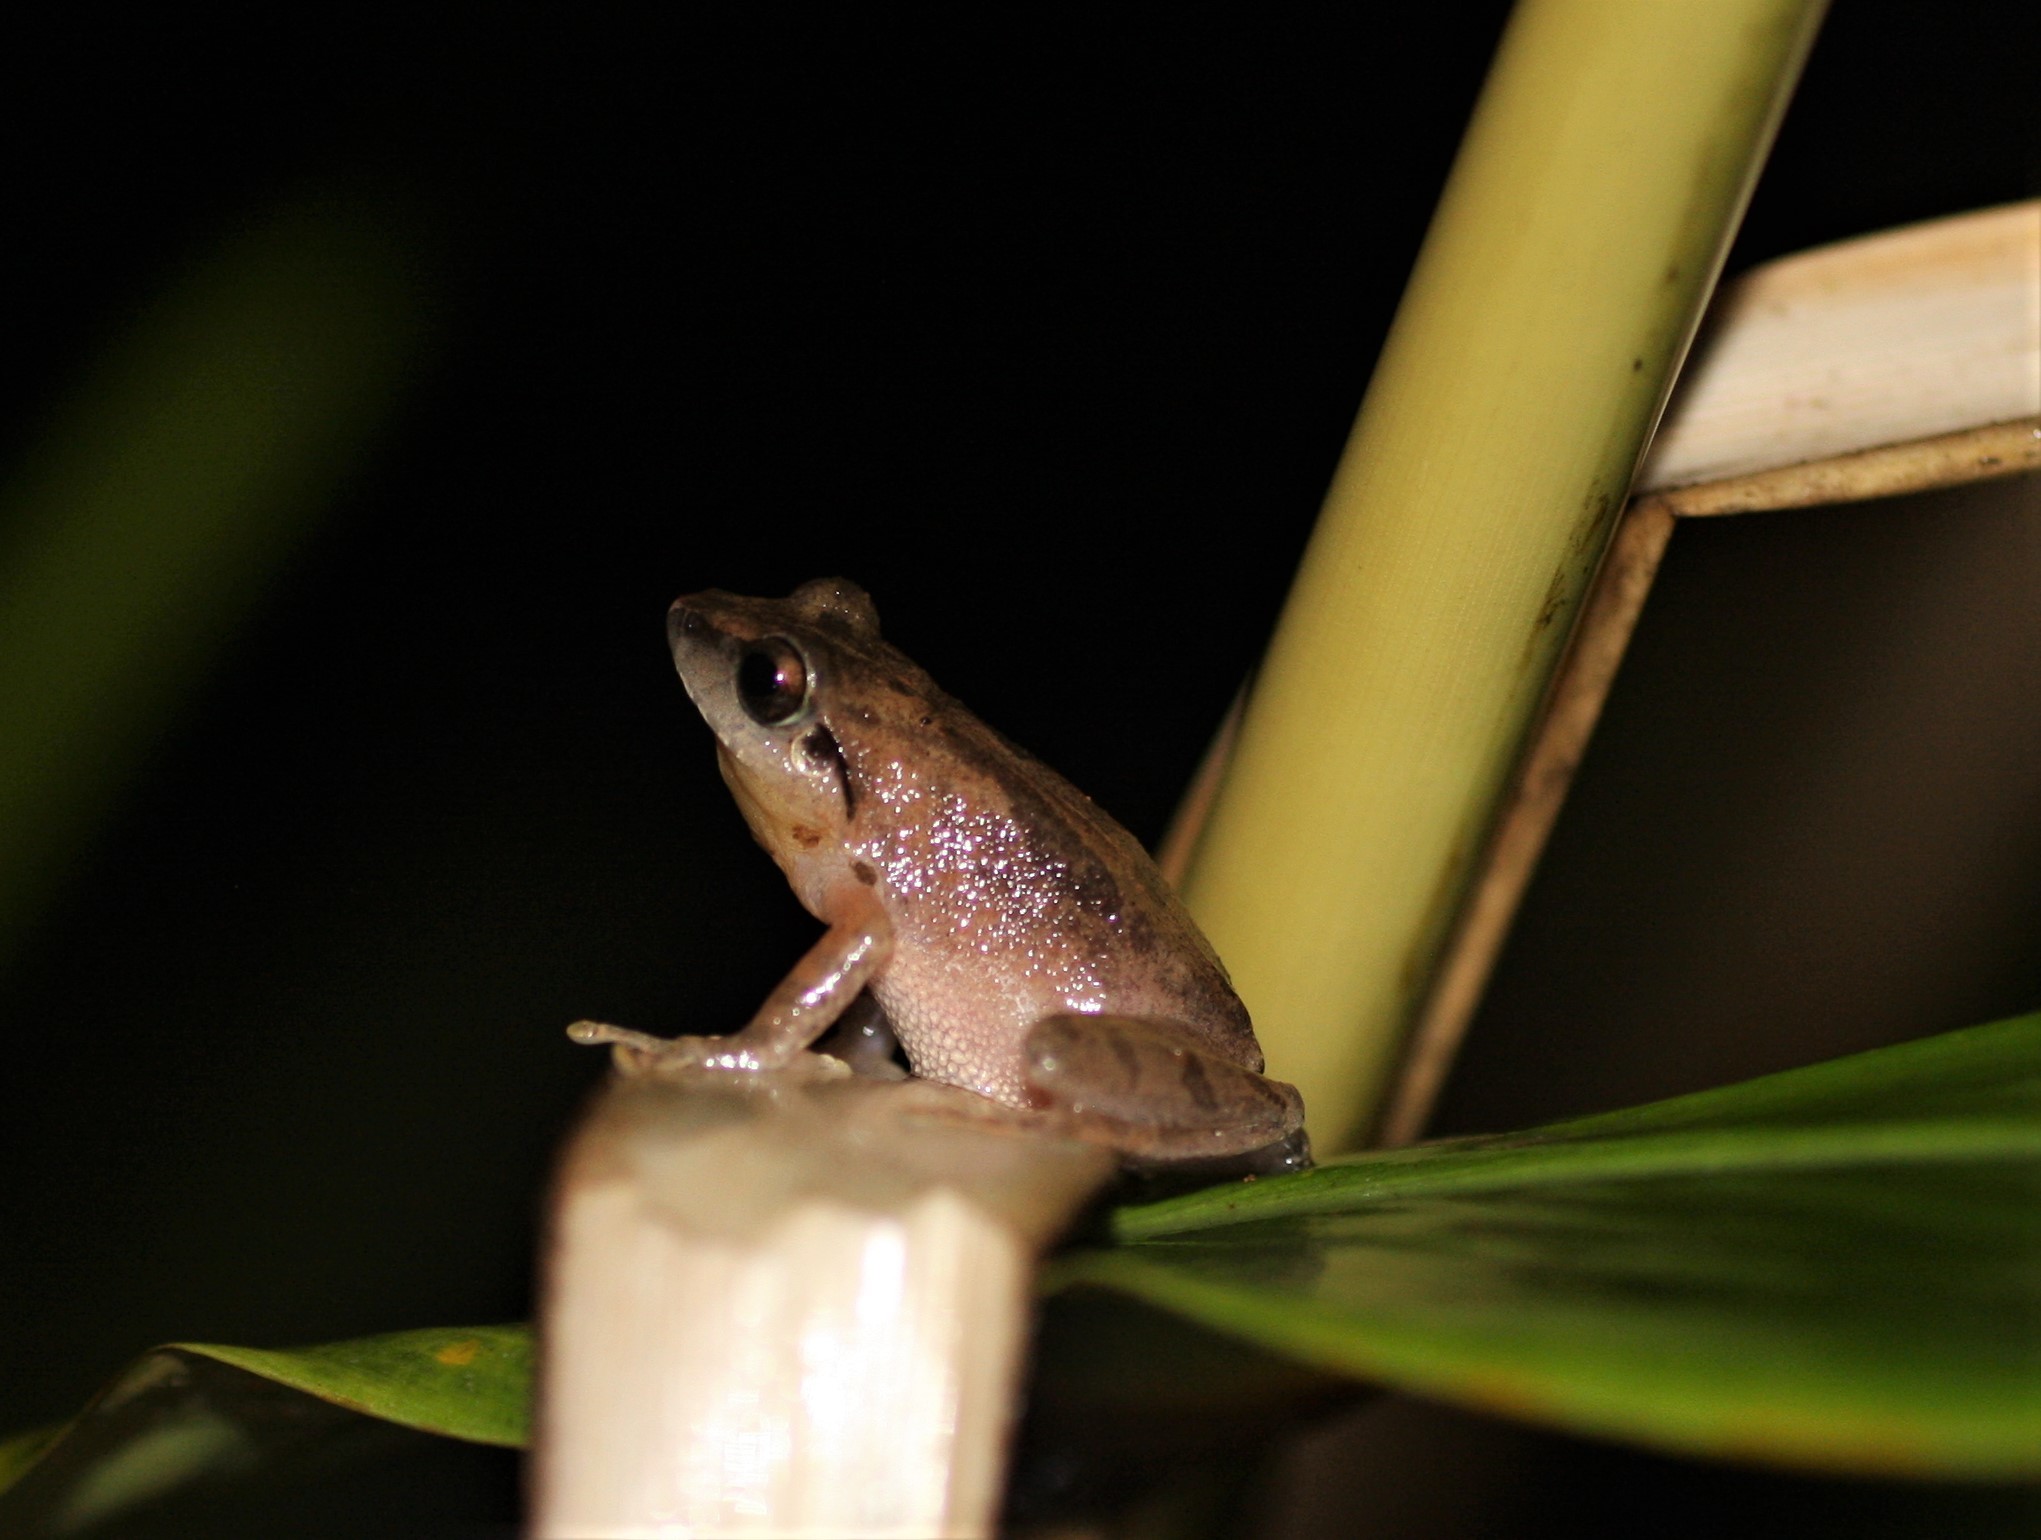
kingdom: Animalia
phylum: Chordata
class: Amphibia
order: Anura
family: Rhacophoridae
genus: Pseudophilautus
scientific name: Pseudophilautus wynaadensis
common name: Dark-eared bush frog
